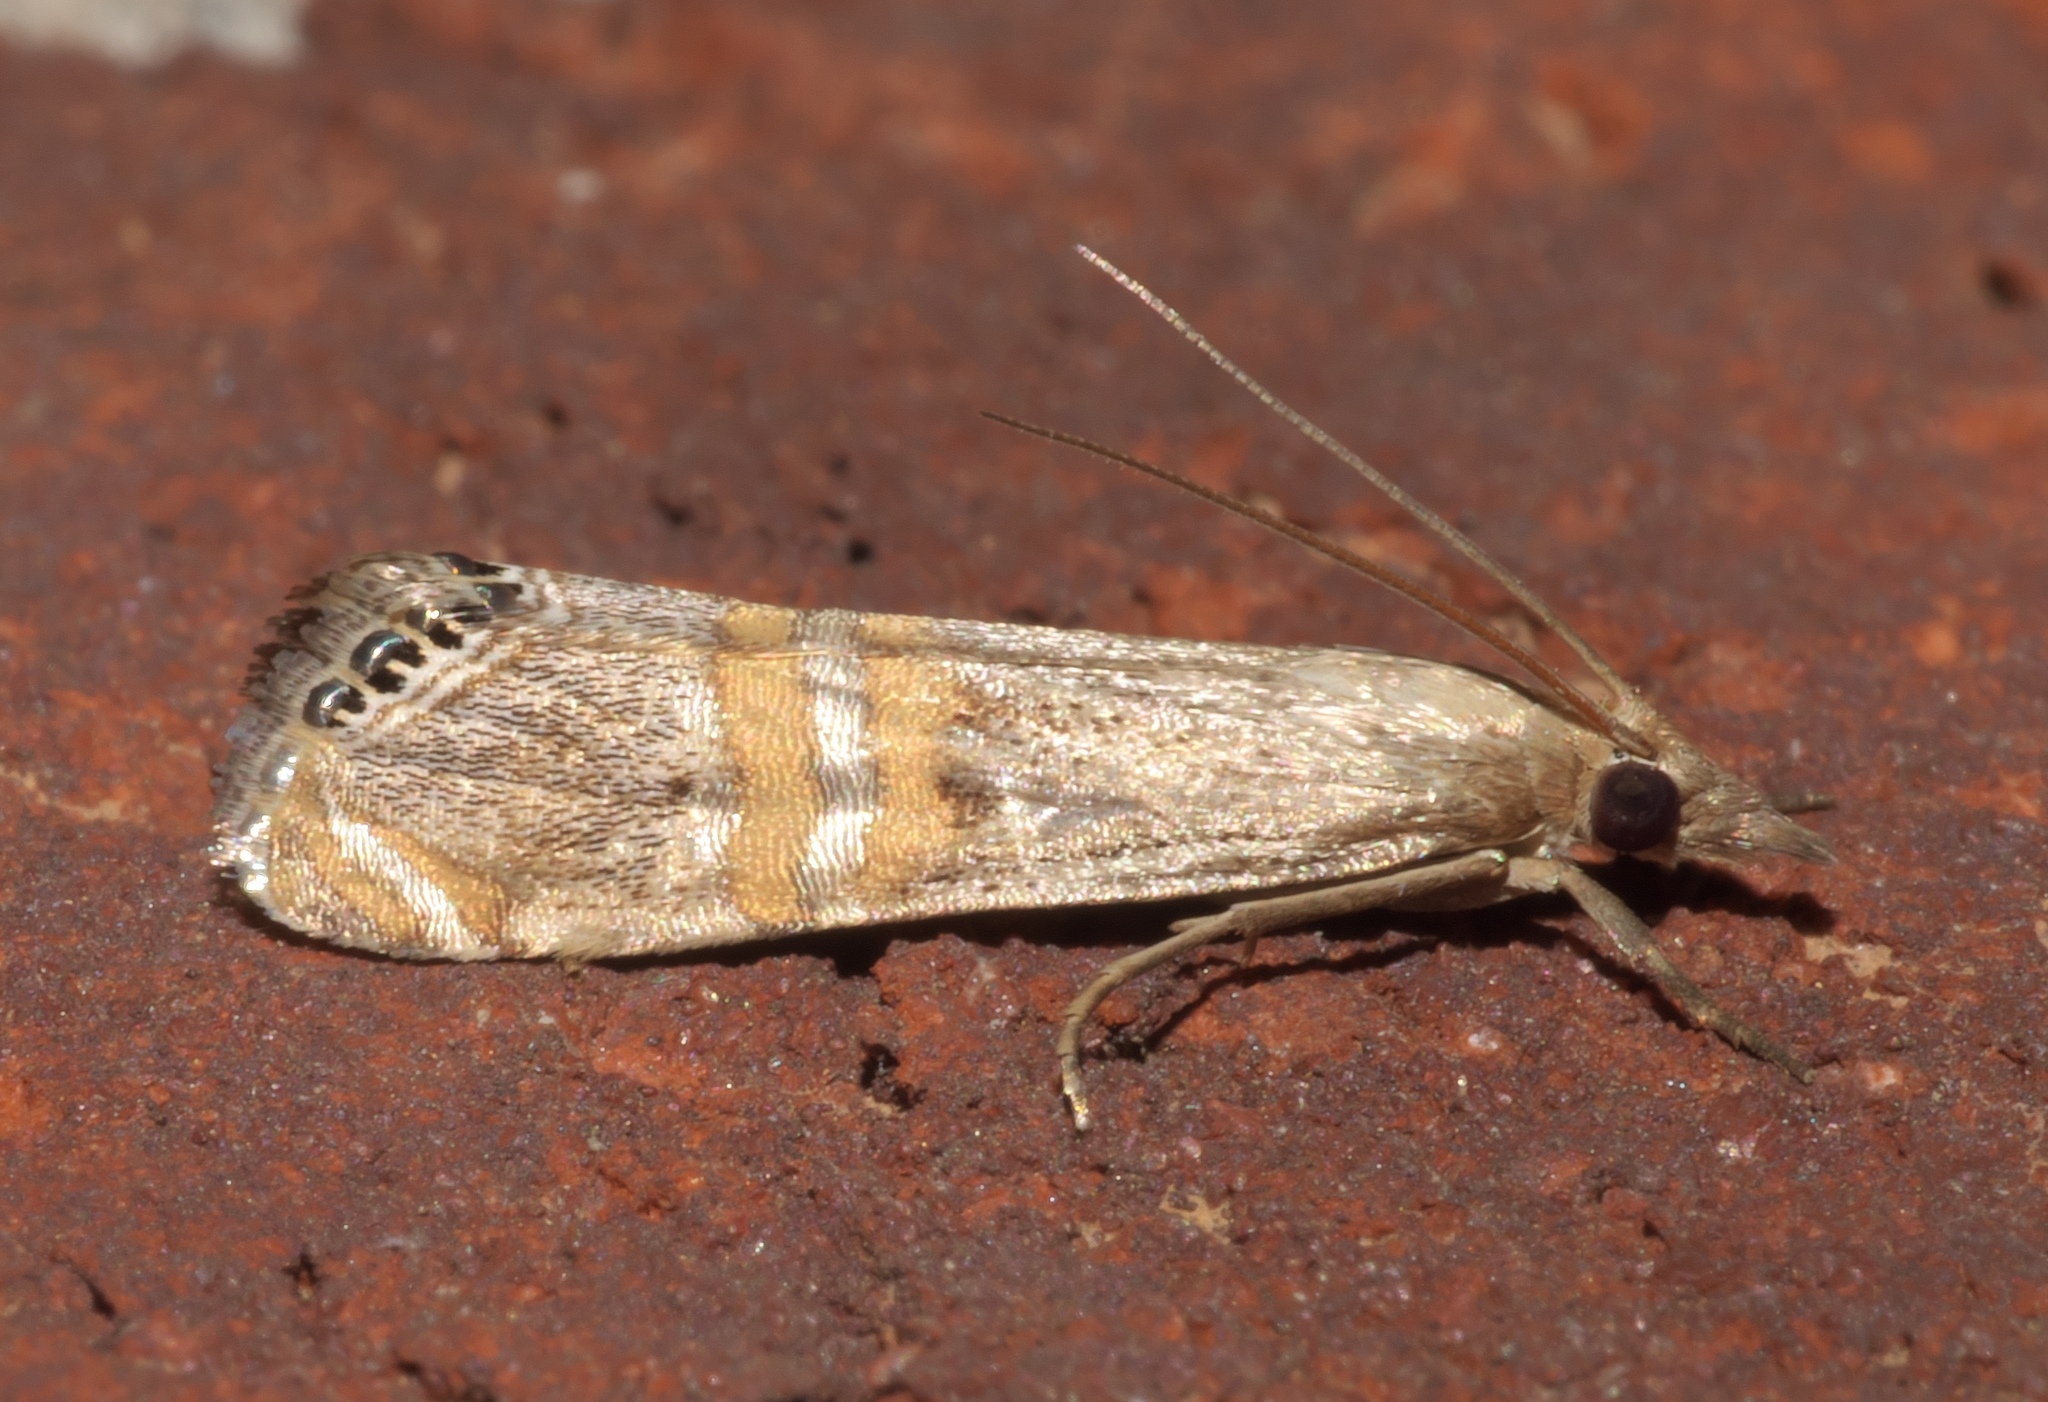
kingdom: Animalia
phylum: Arthropoda
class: Insecta
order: Lepidoptera
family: Crambidae
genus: Euchromius
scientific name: Euchromius ocellea
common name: Necklace veneer moth
